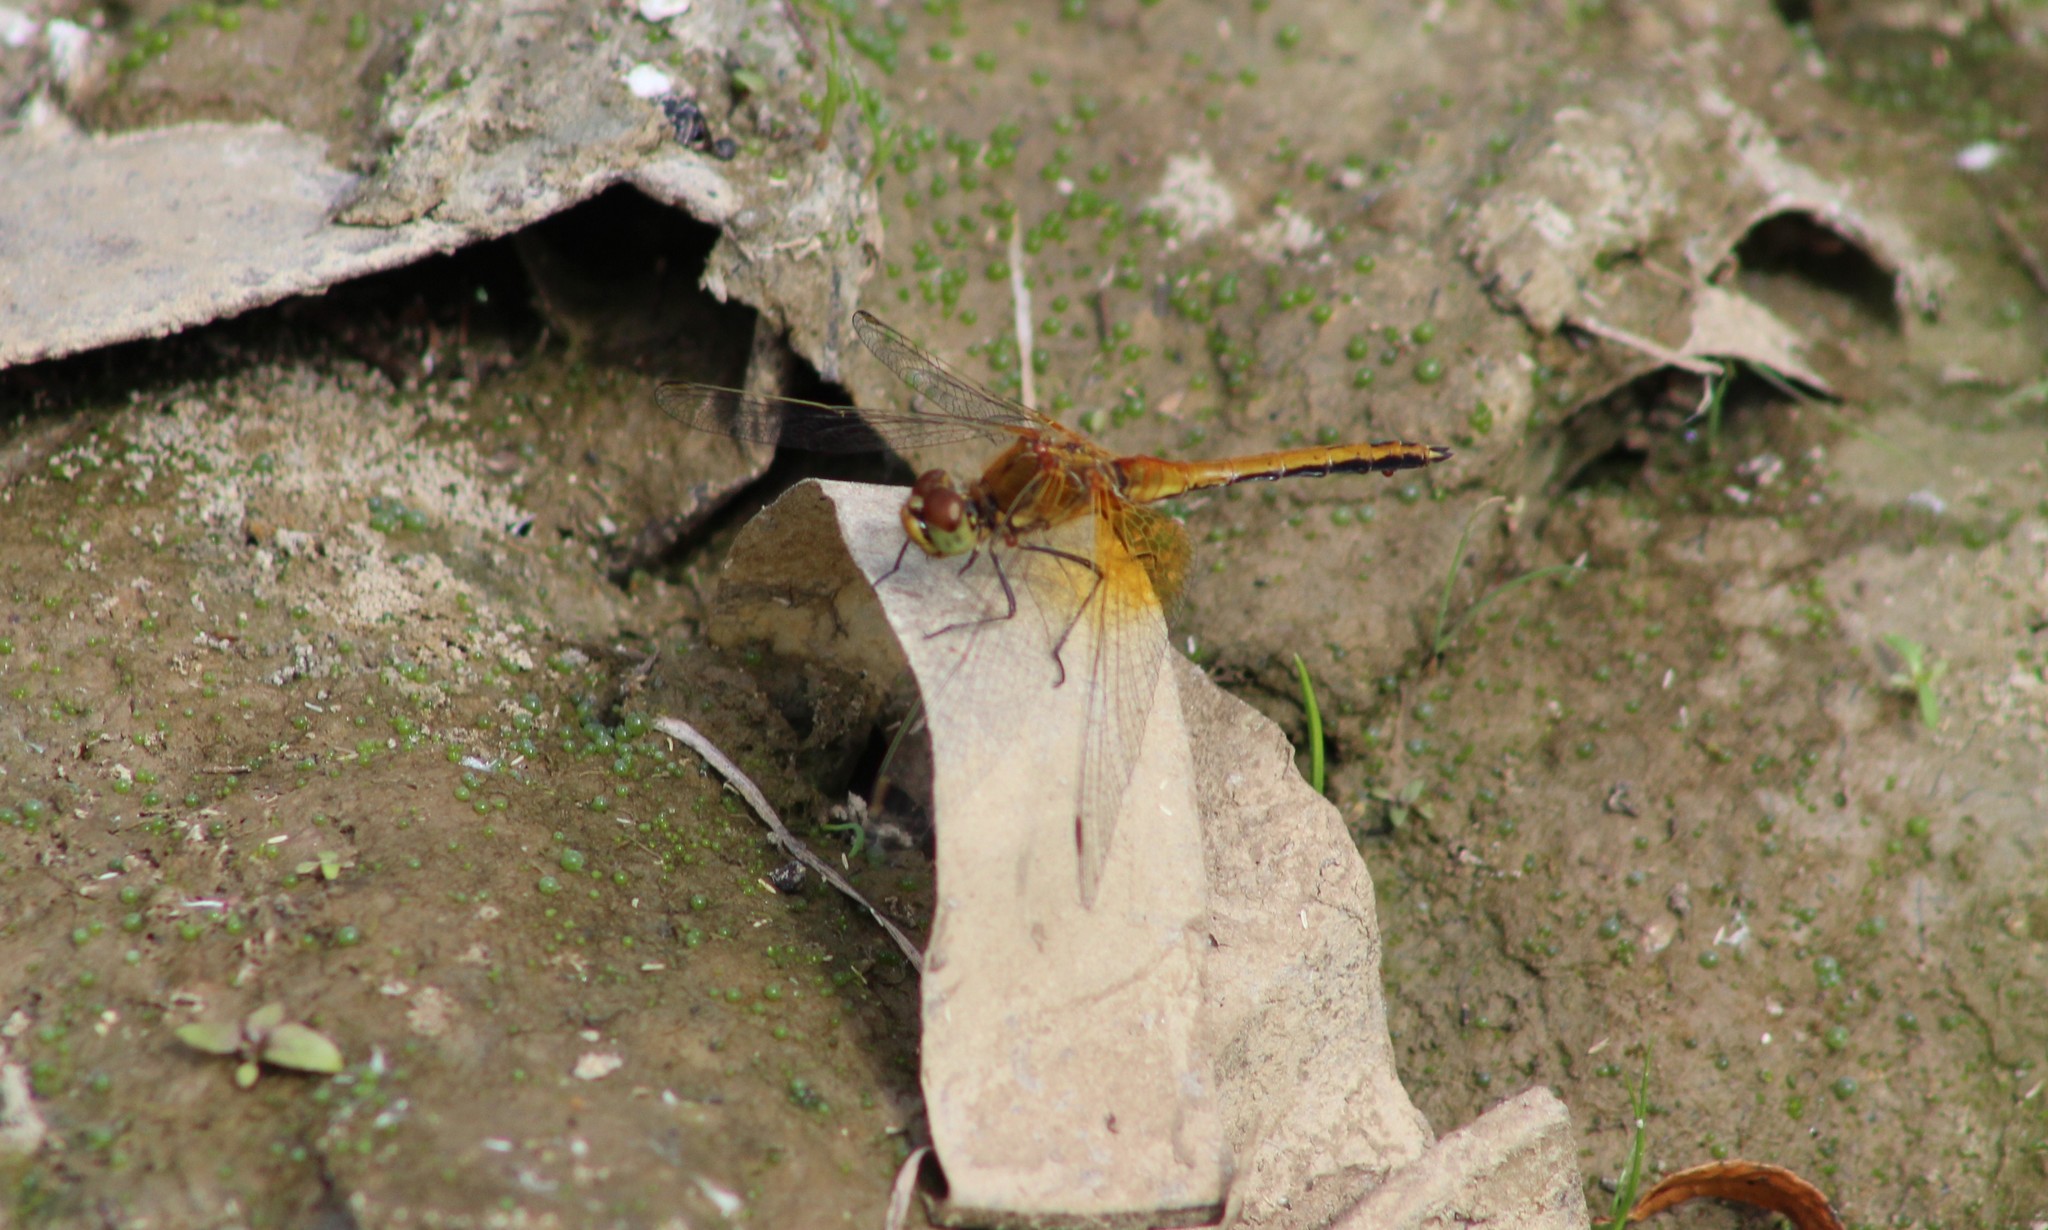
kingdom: Animalia
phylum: Arthropoda
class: Insecta
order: Odonata
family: Libellulidae
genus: Sympetrum
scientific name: Sympetrum flaveolum
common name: Yellow-winged darter
